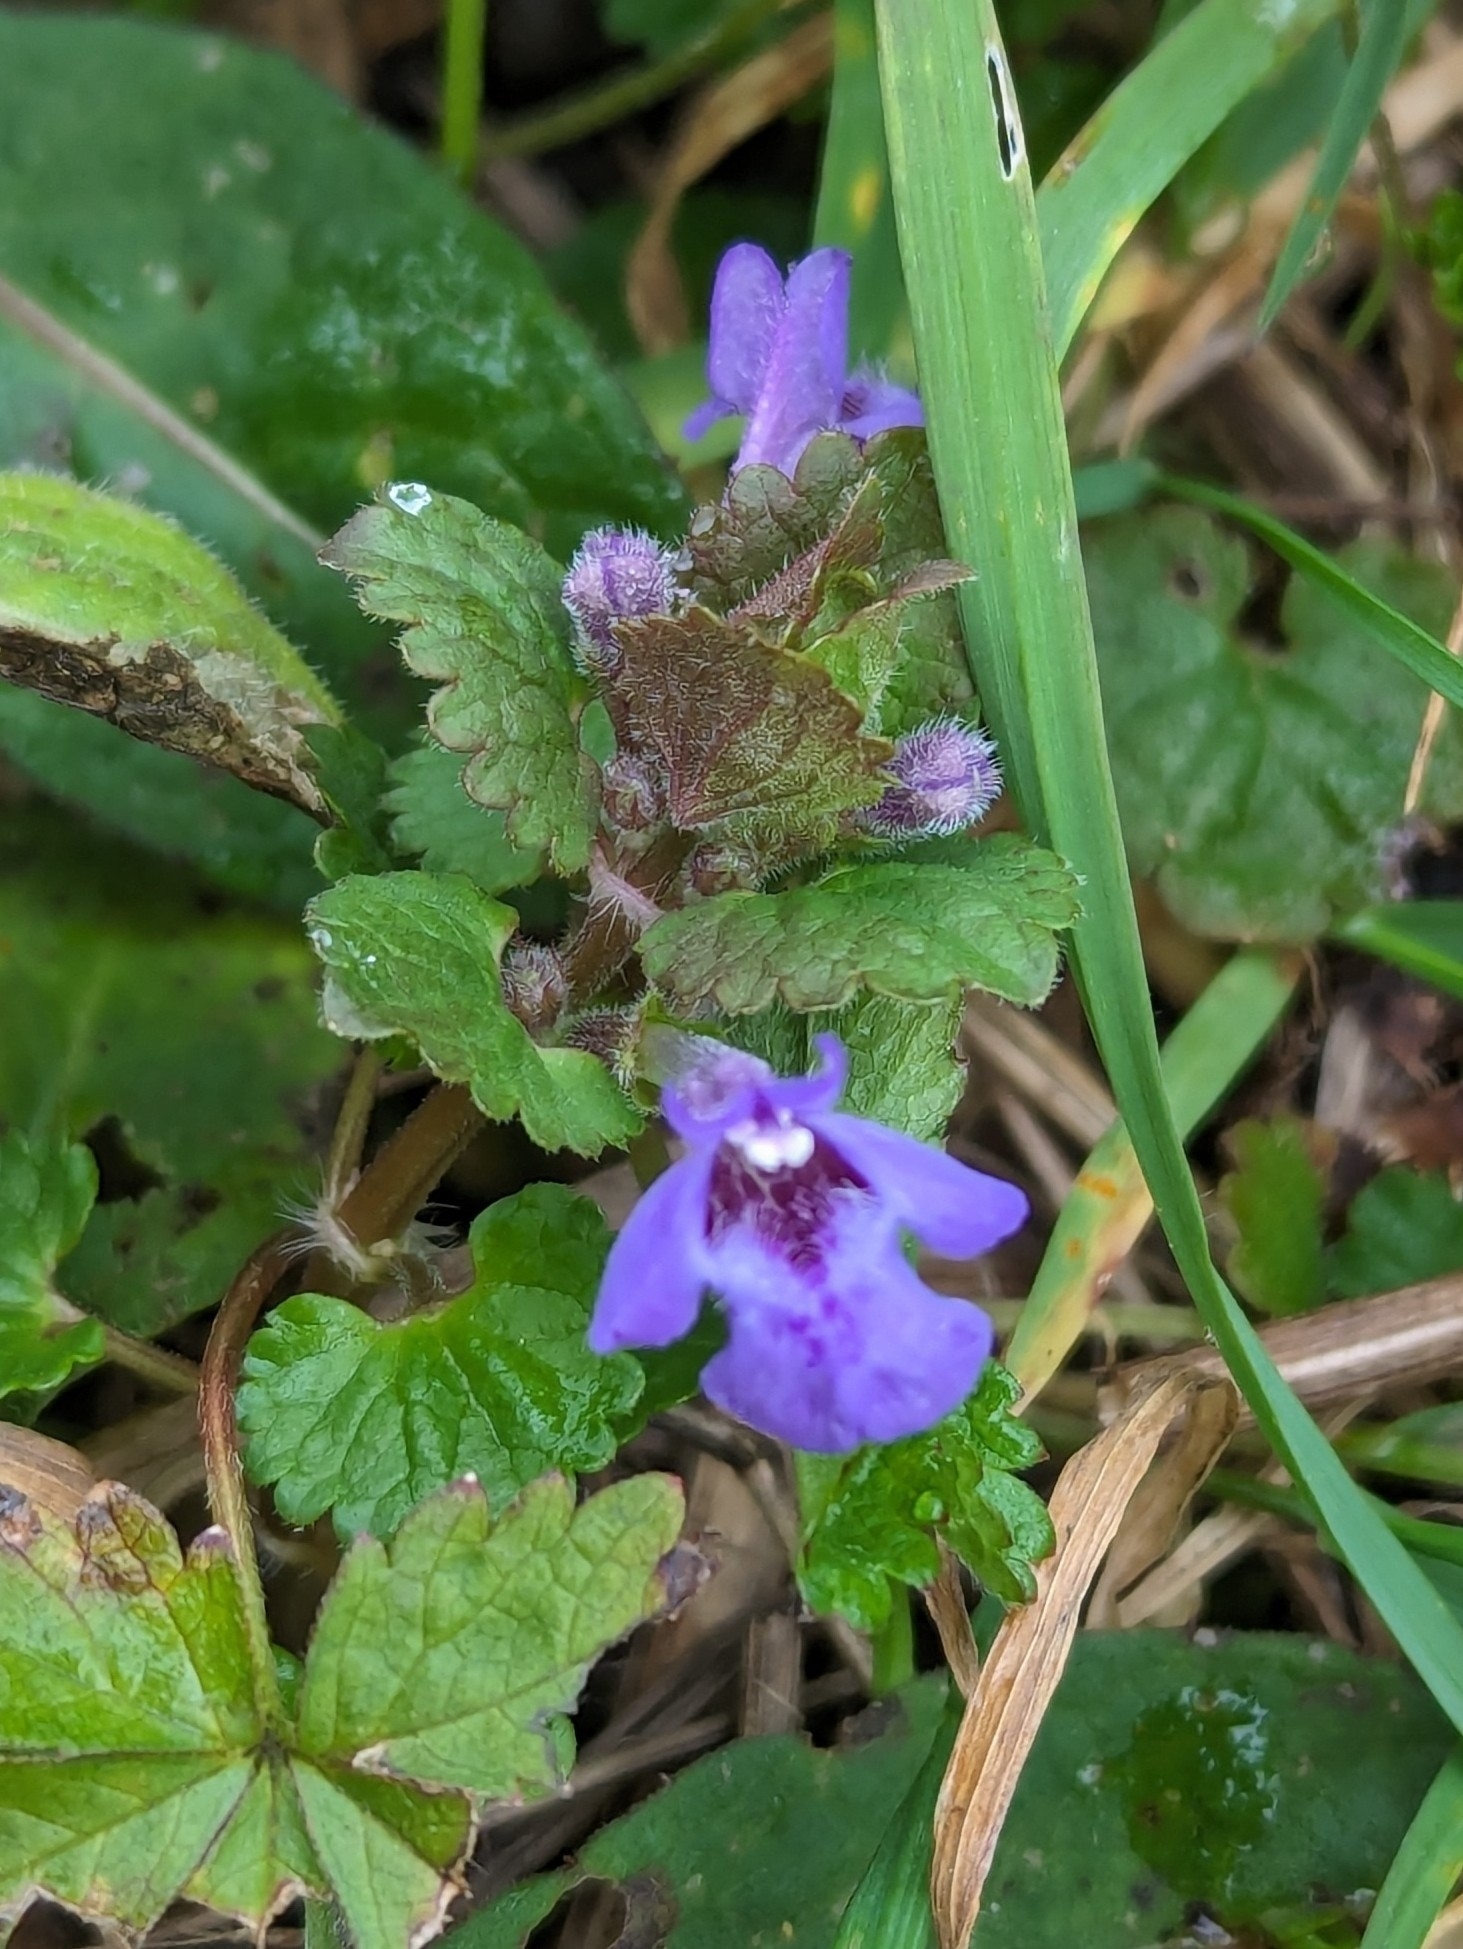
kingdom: Plantae
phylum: Tracheophyta
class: Magnoliopsida
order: Lamiales
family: Lamiaceae
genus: Glechoma
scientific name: Glechoma hederacea
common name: Ground ivy
